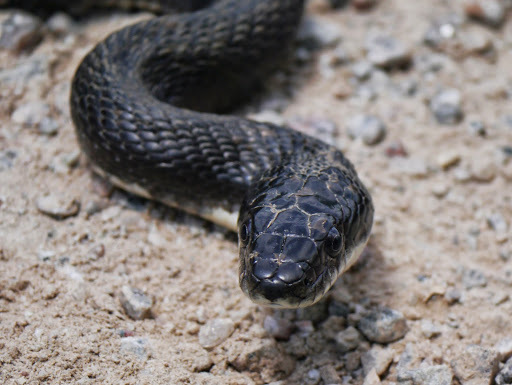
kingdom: Animalia
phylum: Chordata
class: Squamata
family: Colubridae
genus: Pantherophis
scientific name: Pantherophis alleghaniensis
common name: Eastern rat snake
